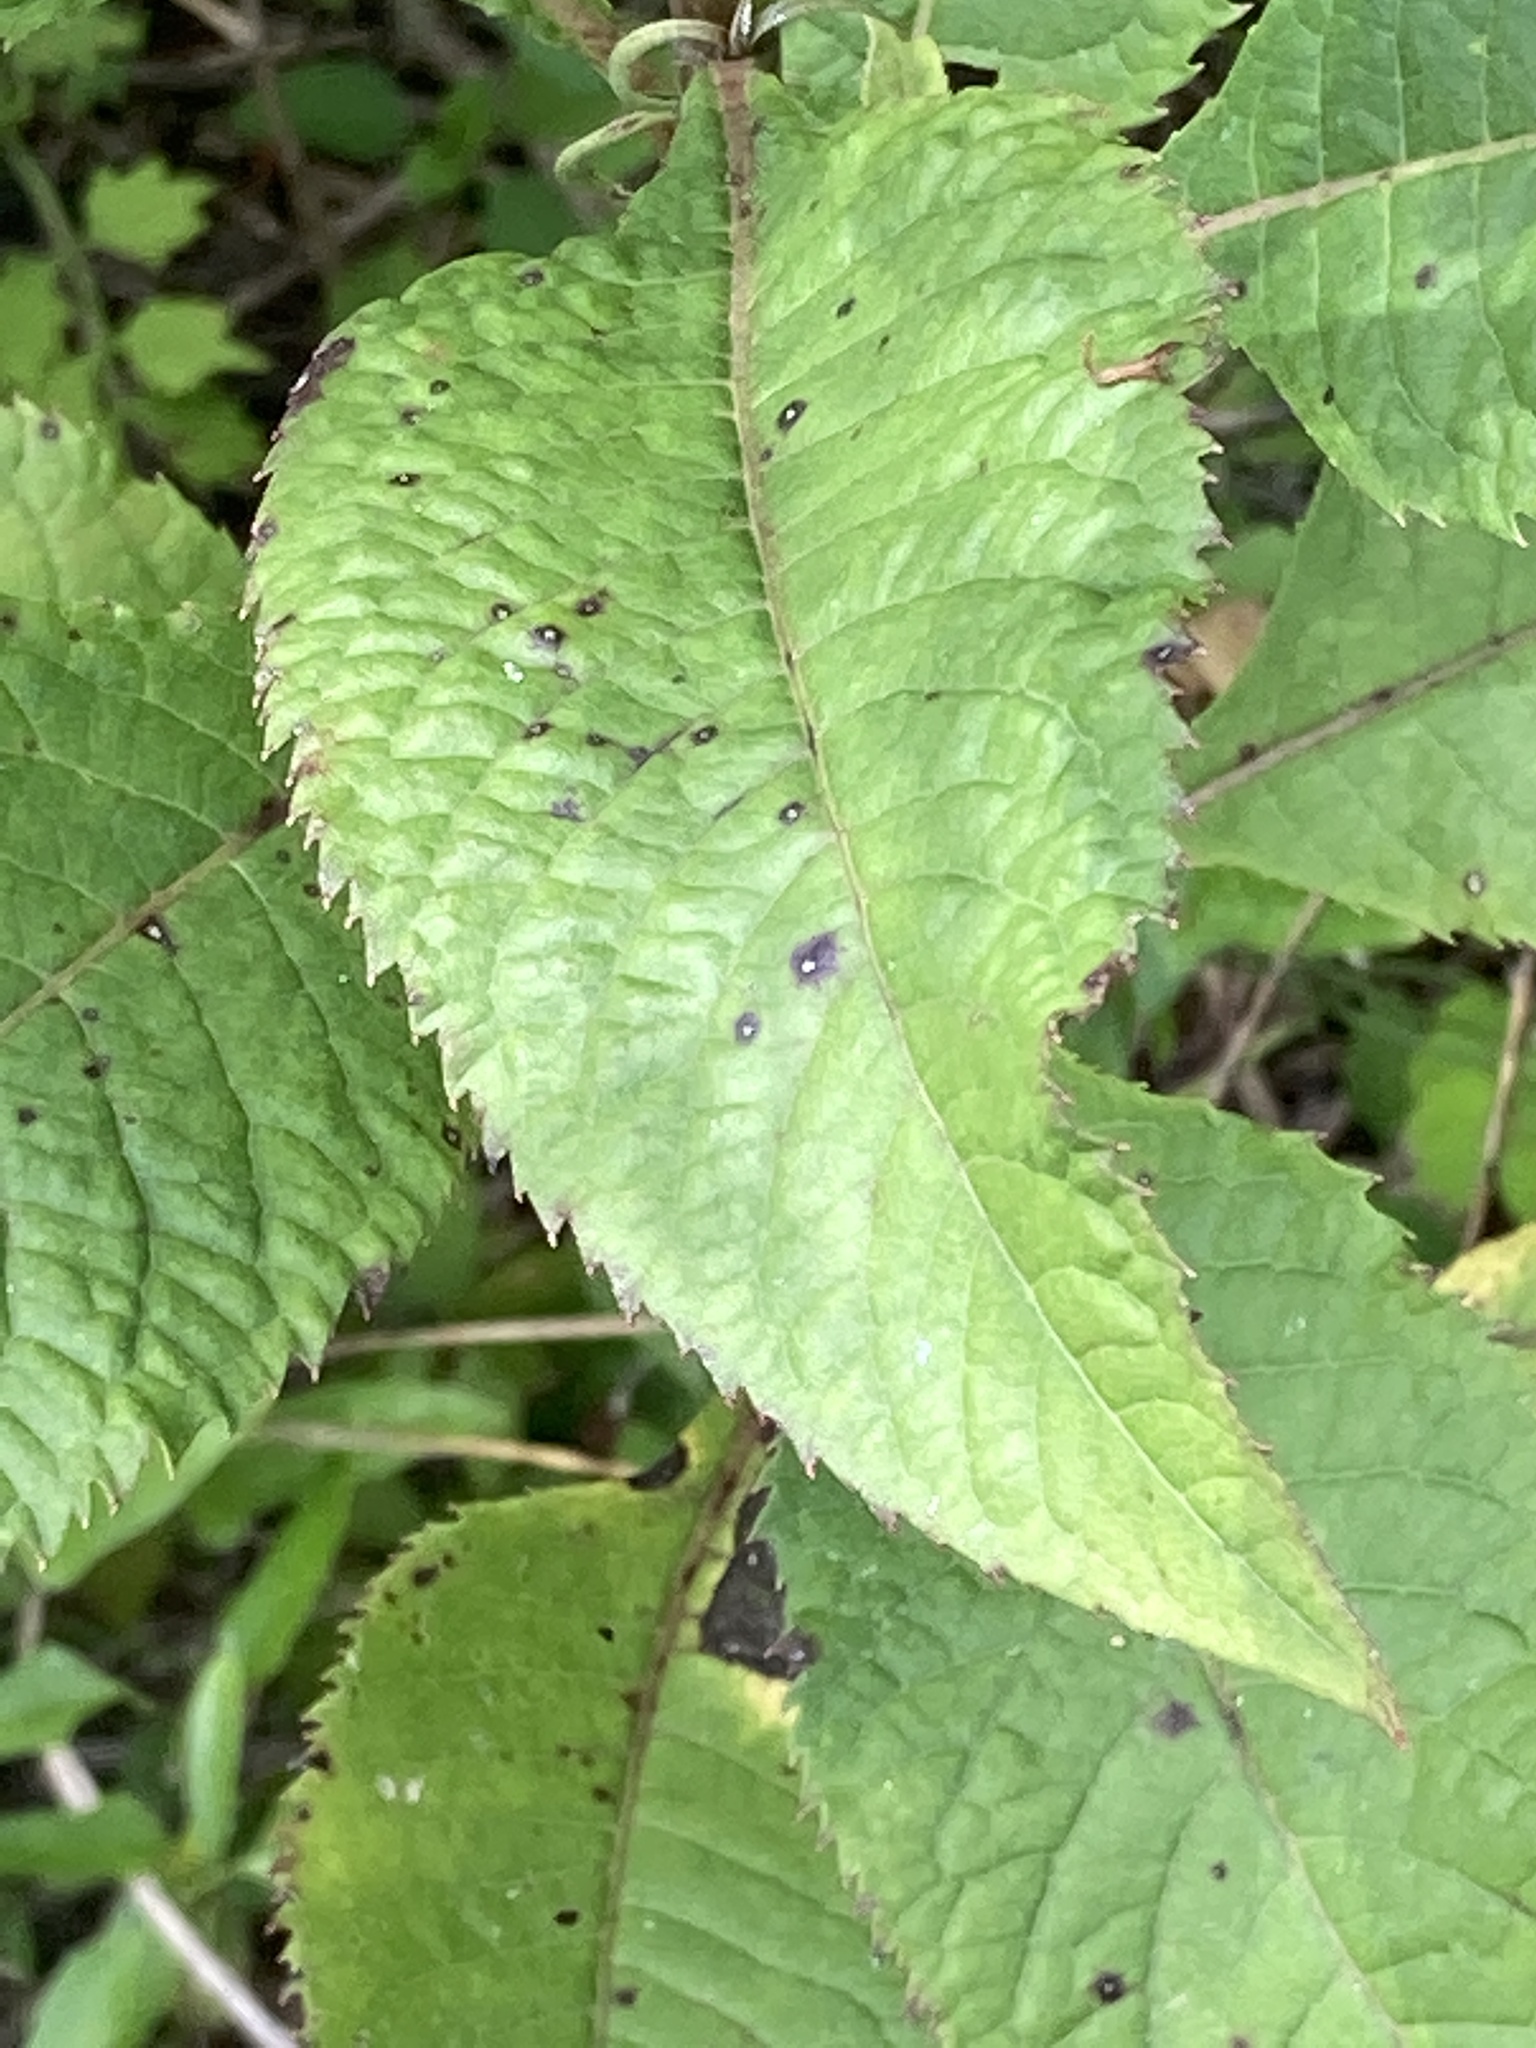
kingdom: Plantae
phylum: Tracheophyta
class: Magnoliopsida
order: Asterales
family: Asteraceae
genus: Vernonia
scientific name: Vernonia gigantea
